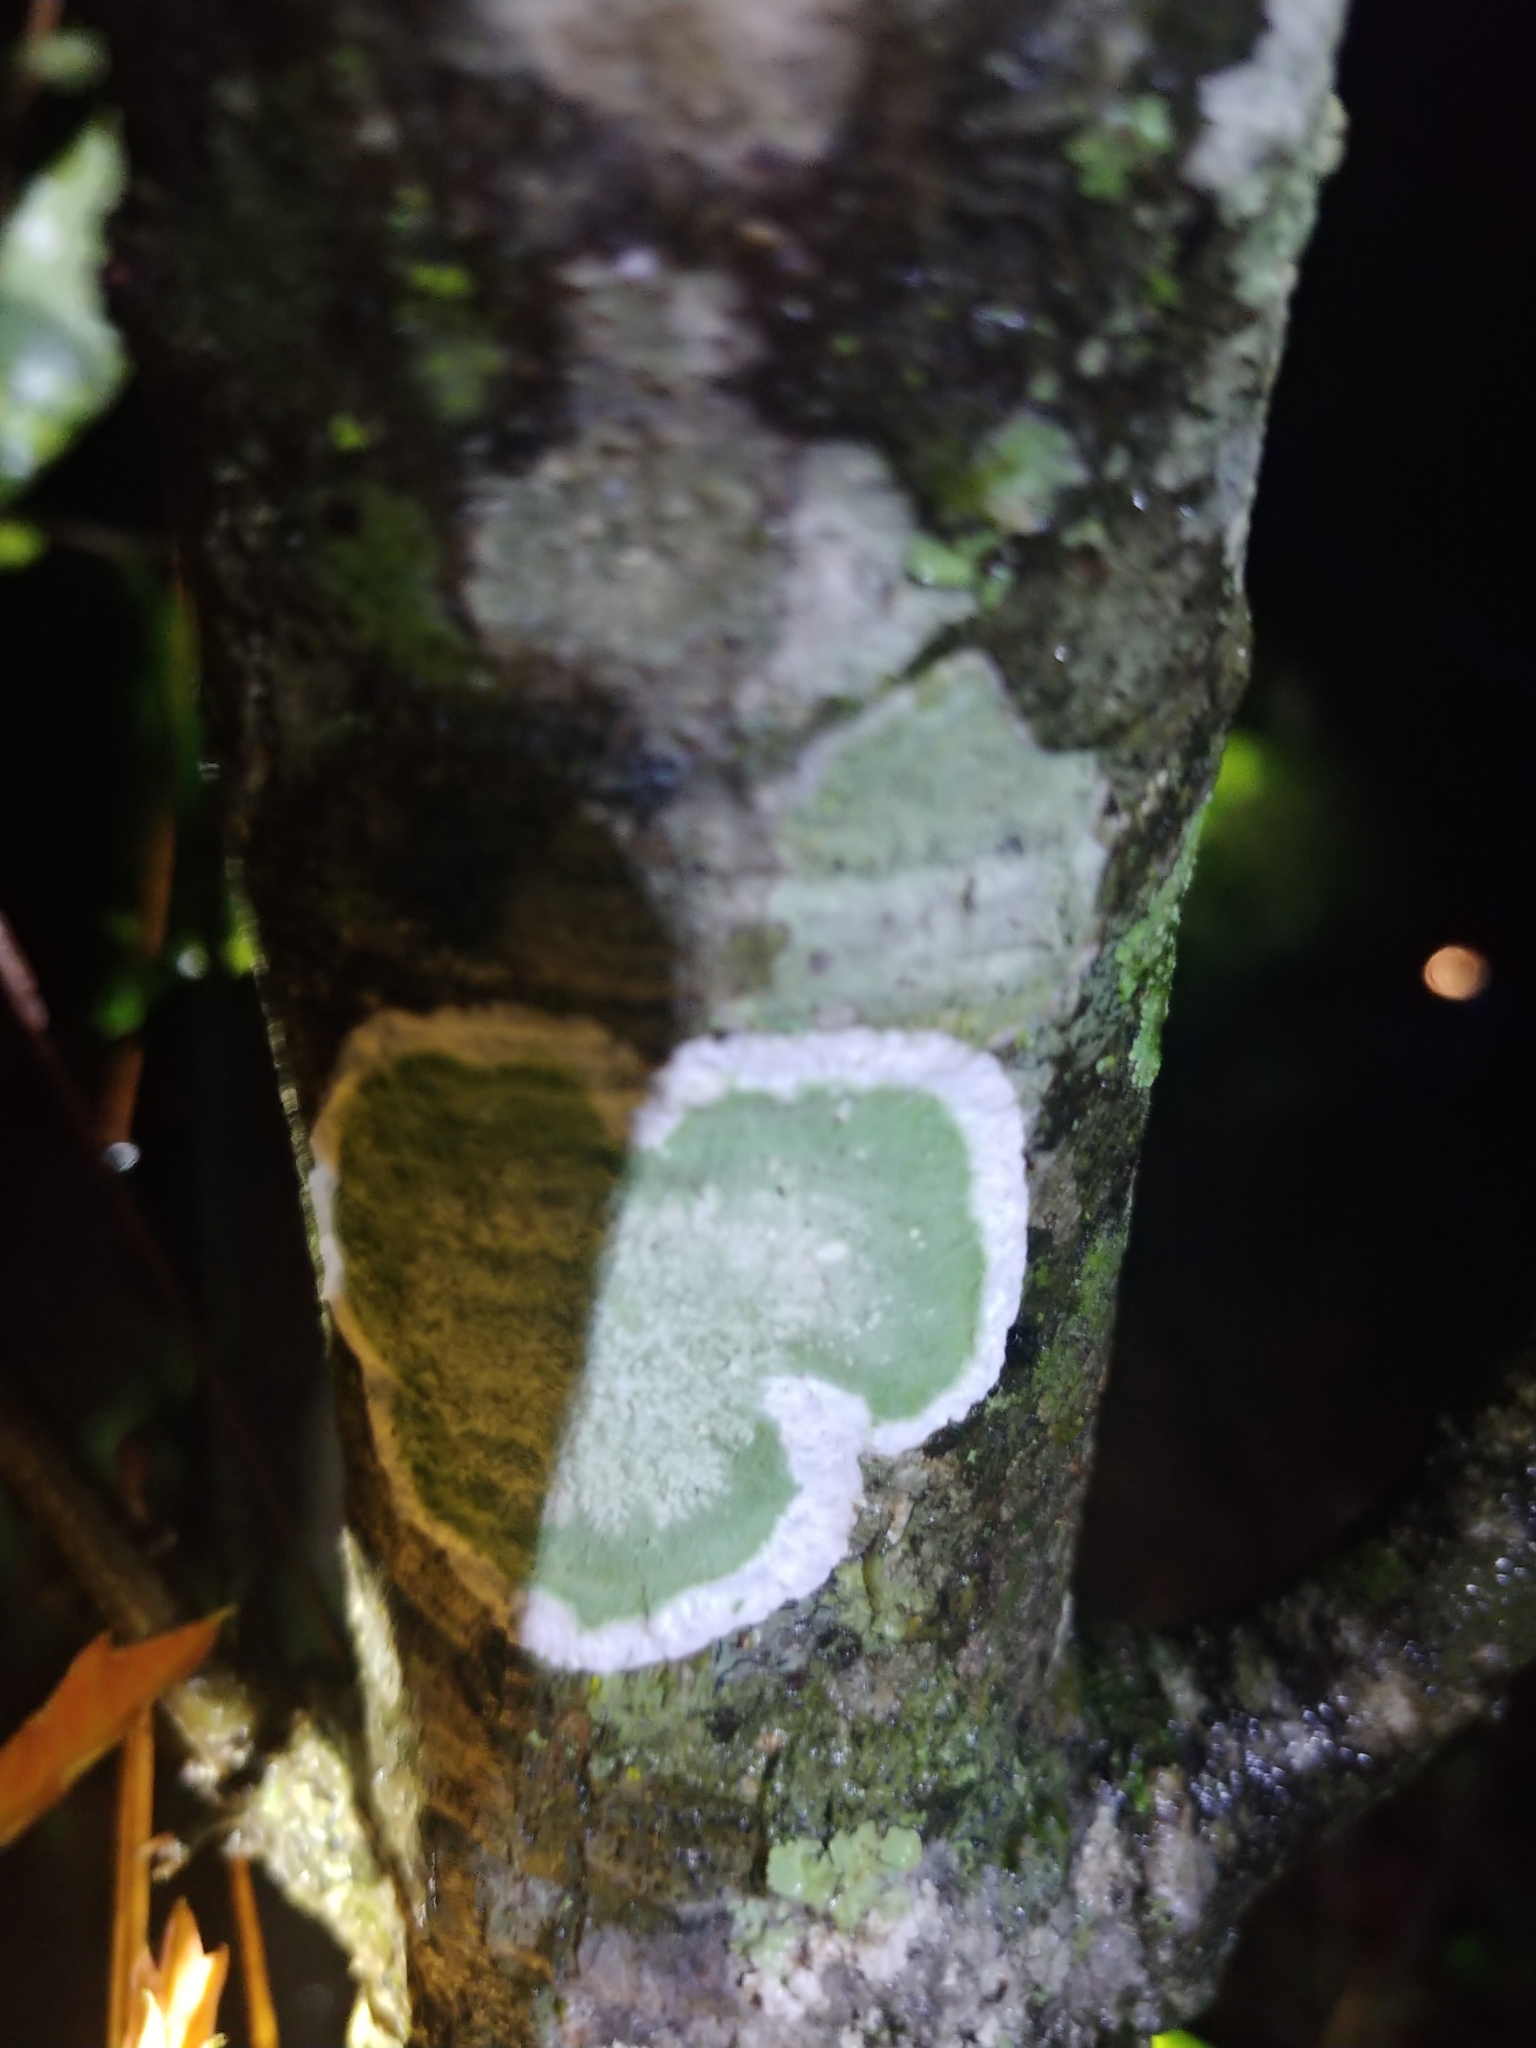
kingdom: Fungi
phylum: Ascomycota
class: Arthoniomycetes
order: Arthoniales
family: Arthoniaceae
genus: Cryptothecia
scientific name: Cryptothecia striata
